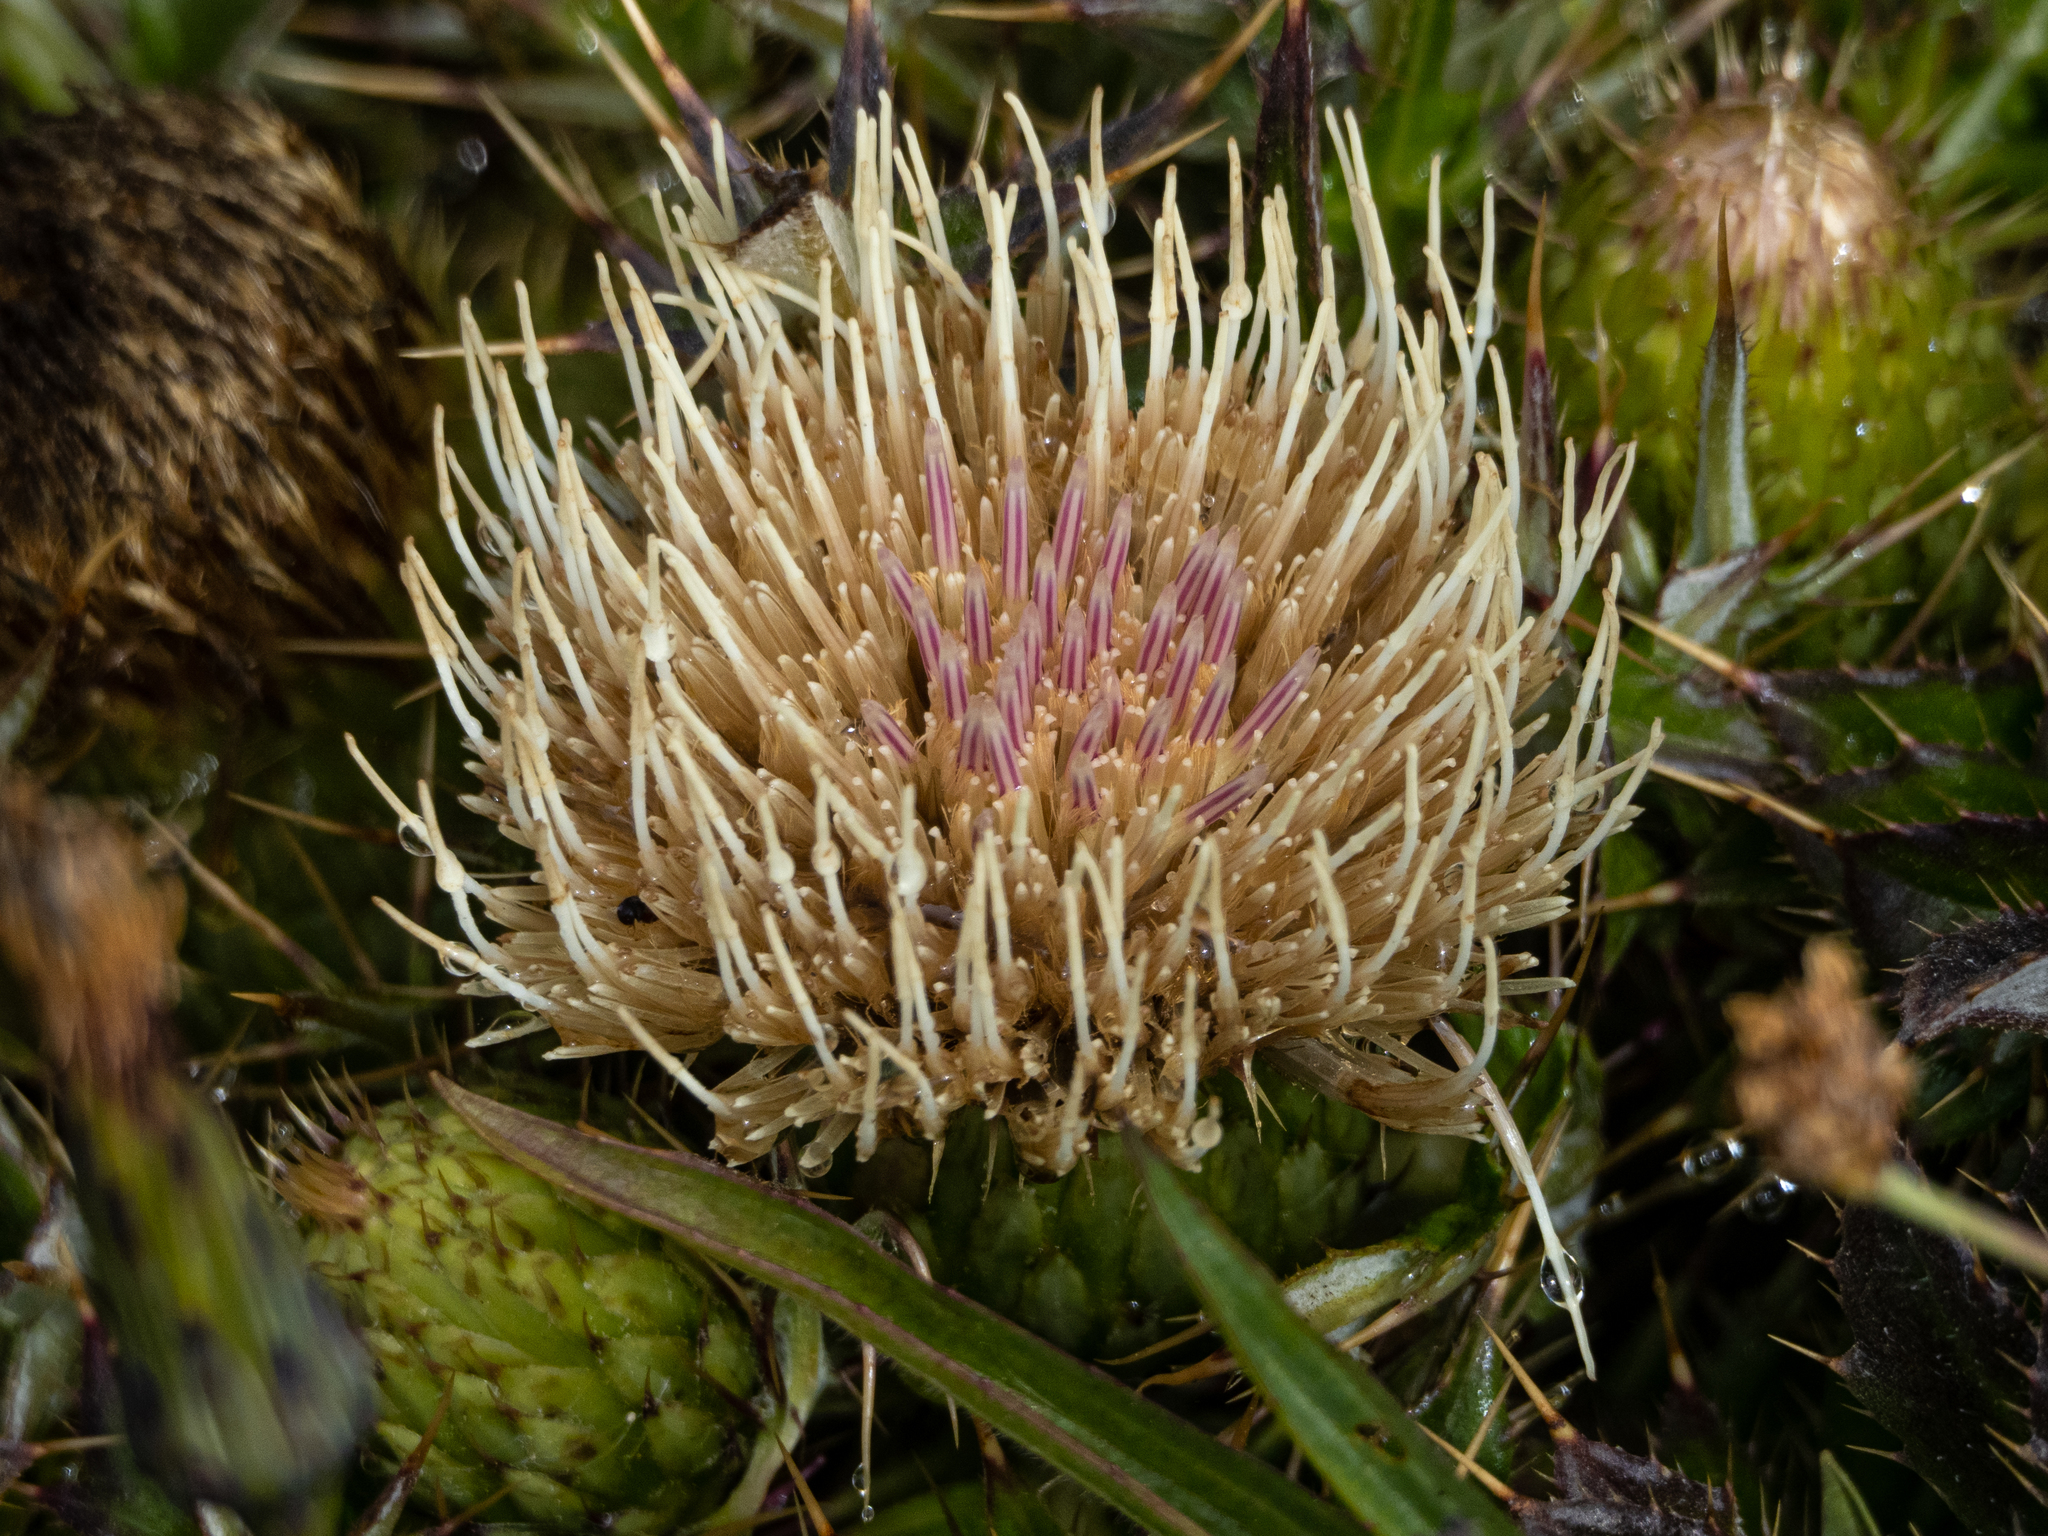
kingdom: Plantae
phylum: Tracheophyta
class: Magnoliopsida
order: Asterales
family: Asteraceae
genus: Cirsium
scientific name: Cirsium quercetorum
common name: Alameda county thistle
